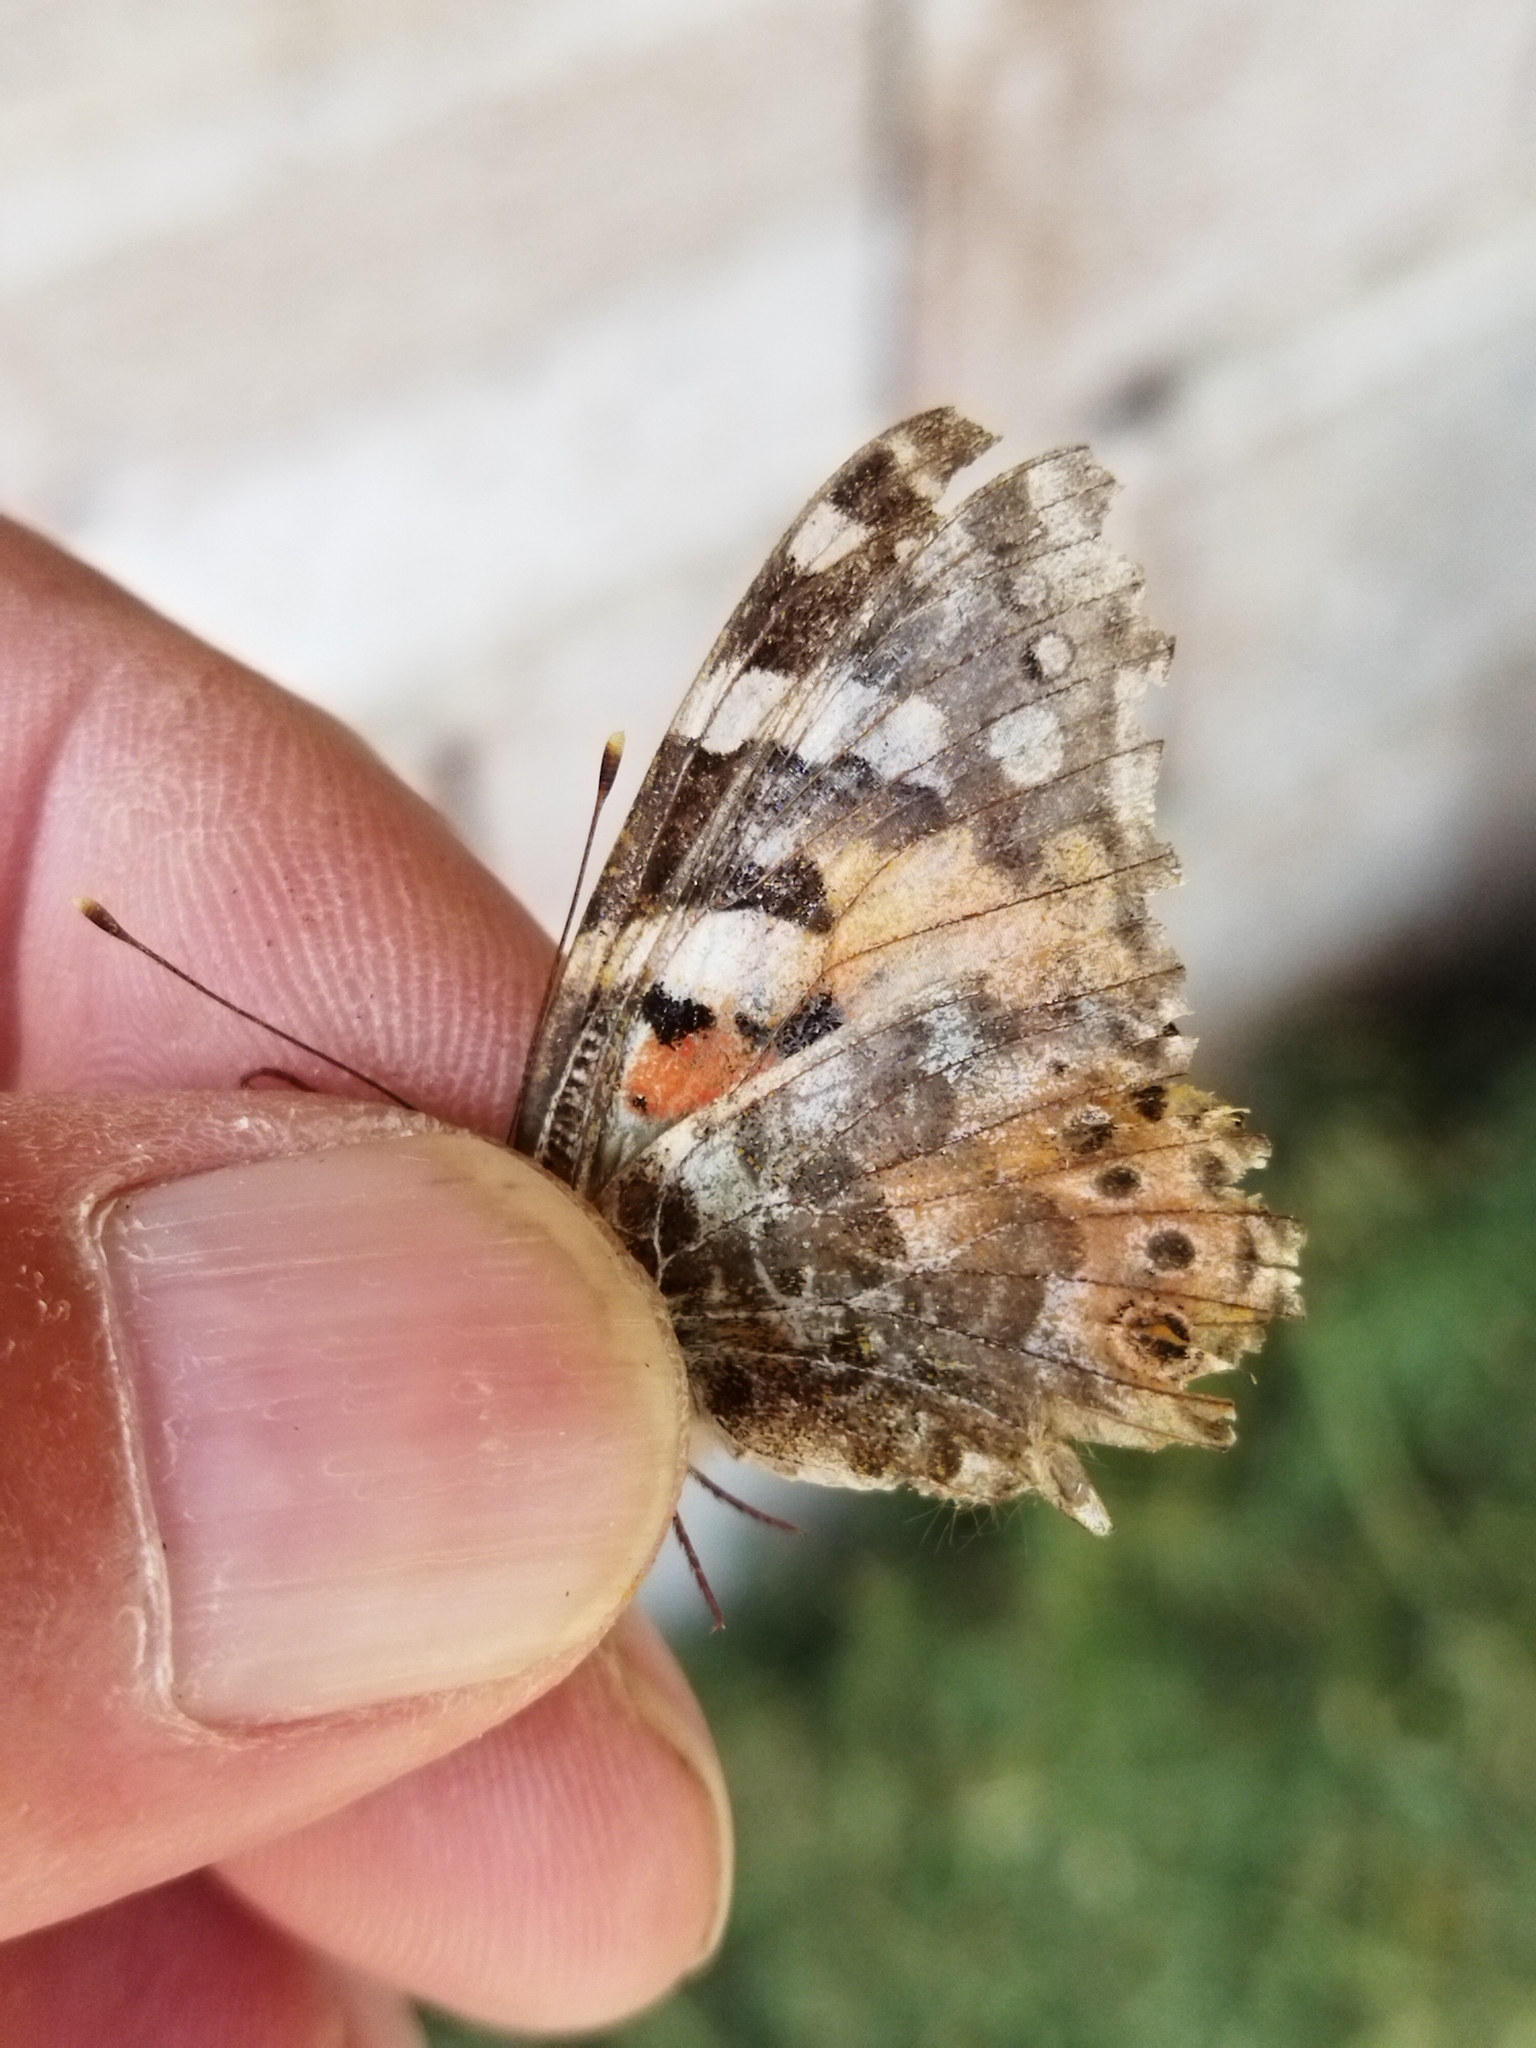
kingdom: Animalia
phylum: Arthropoda
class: Insecta
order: Lepidoptera
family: Nymphalidae
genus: Vanessa
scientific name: Vanessa cardui
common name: Painted lady
